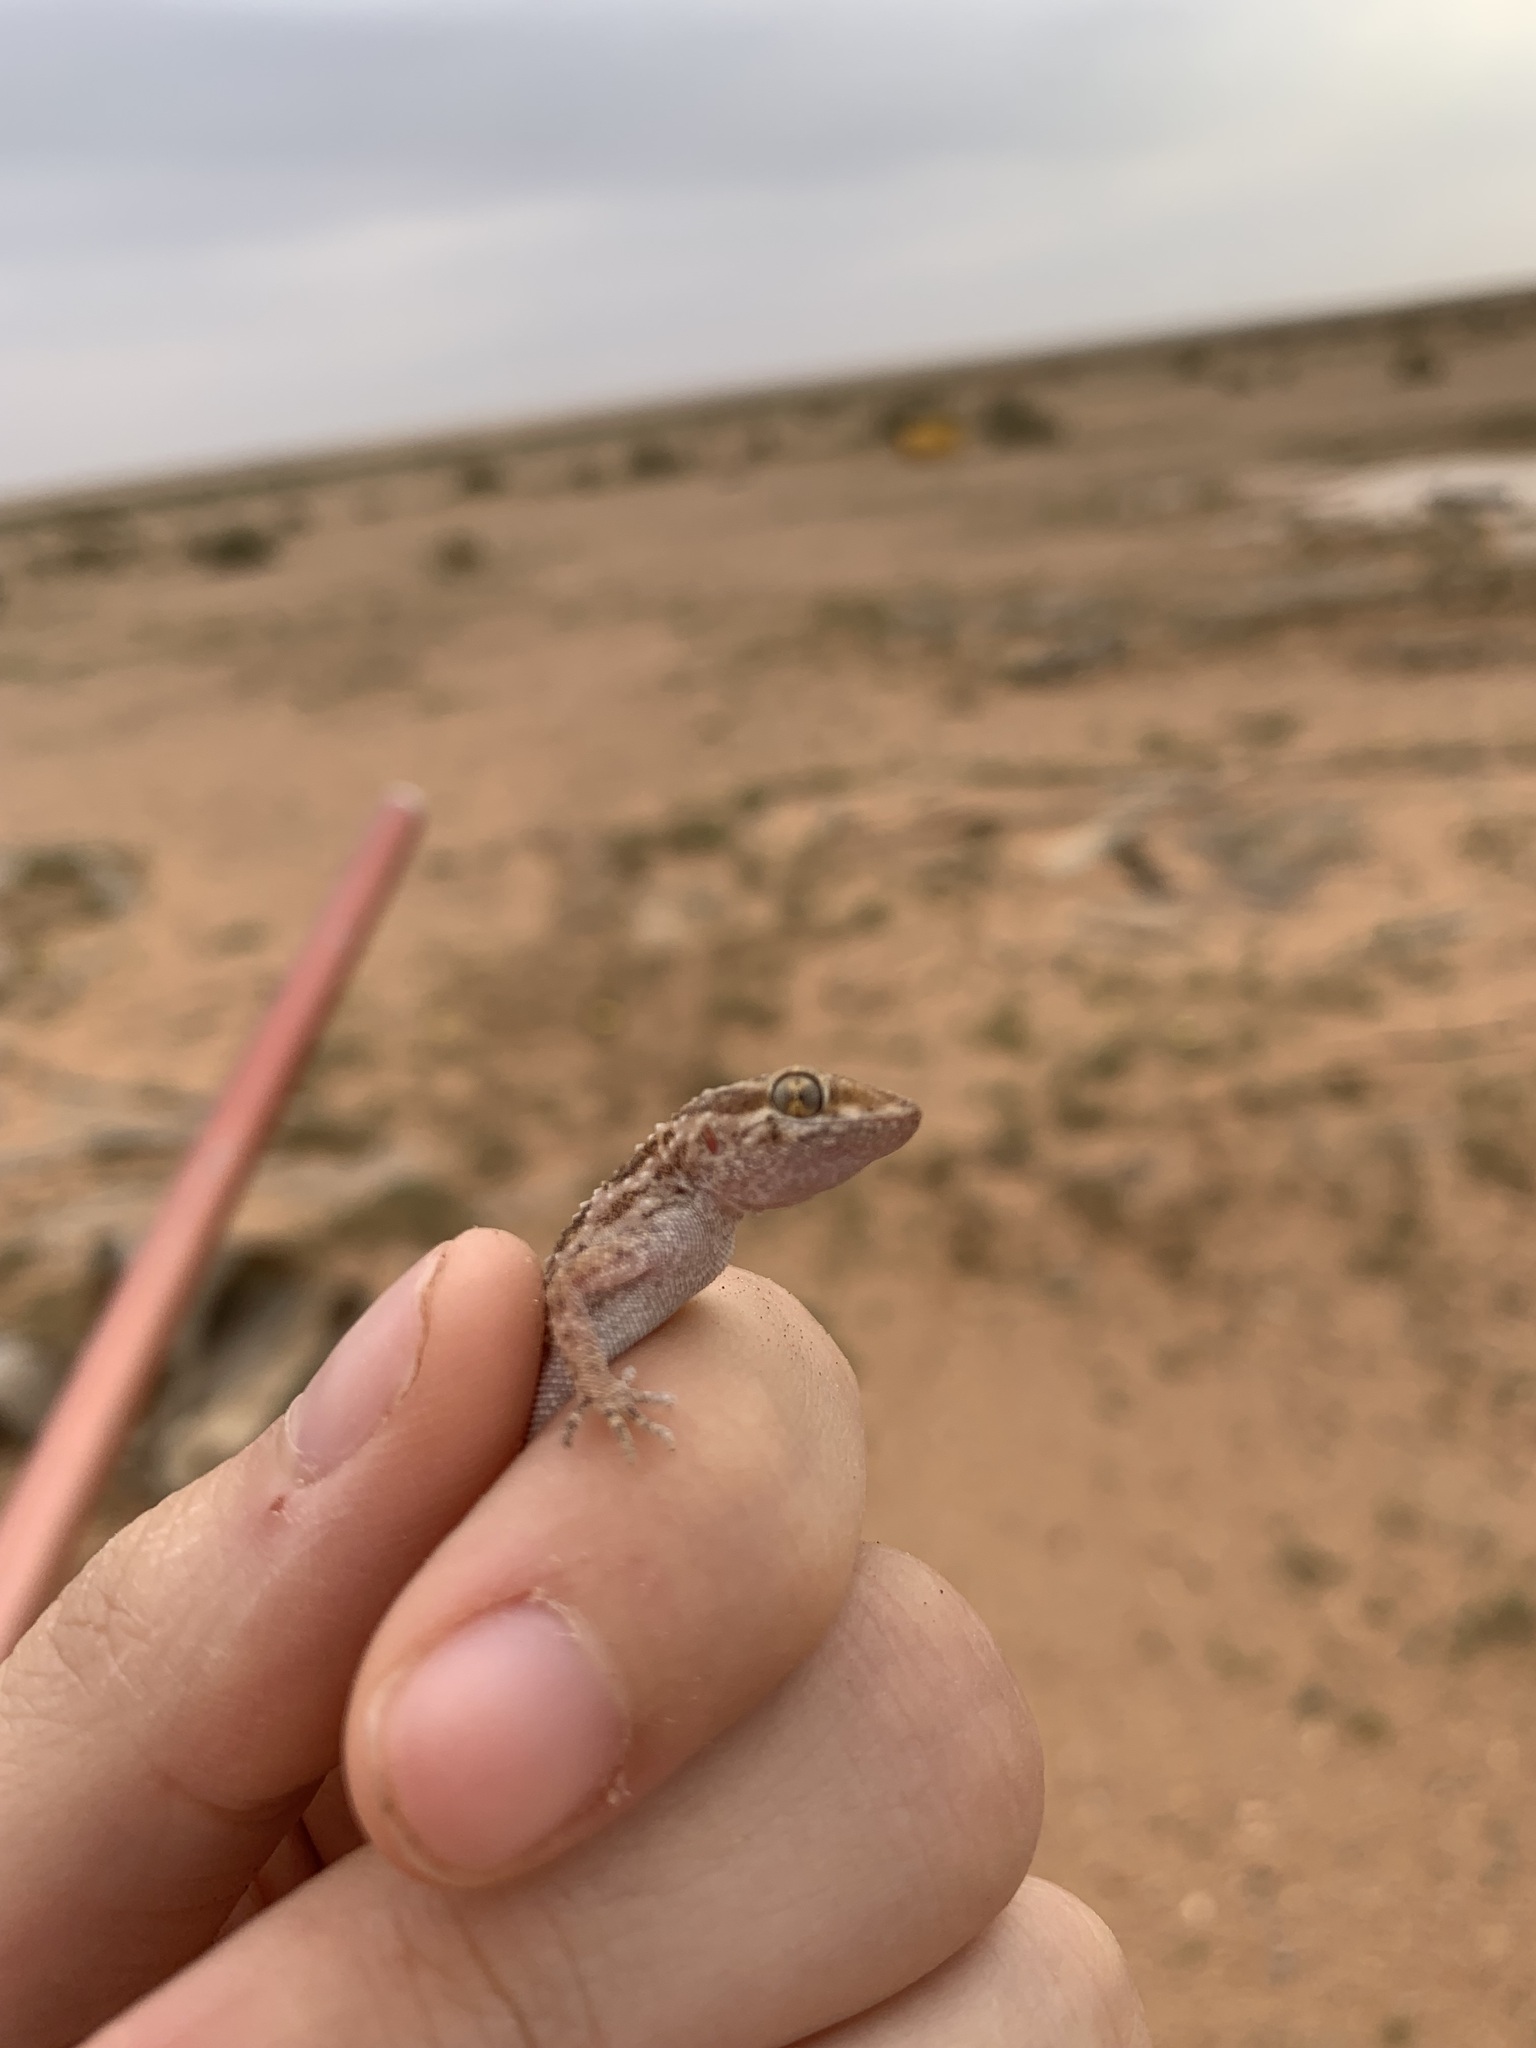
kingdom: Animalia
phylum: Chordata
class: Squamata
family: Gekkonidae
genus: Bunopus
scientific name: Bunopus tuberculatus
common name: Southern tuberculated gecko
